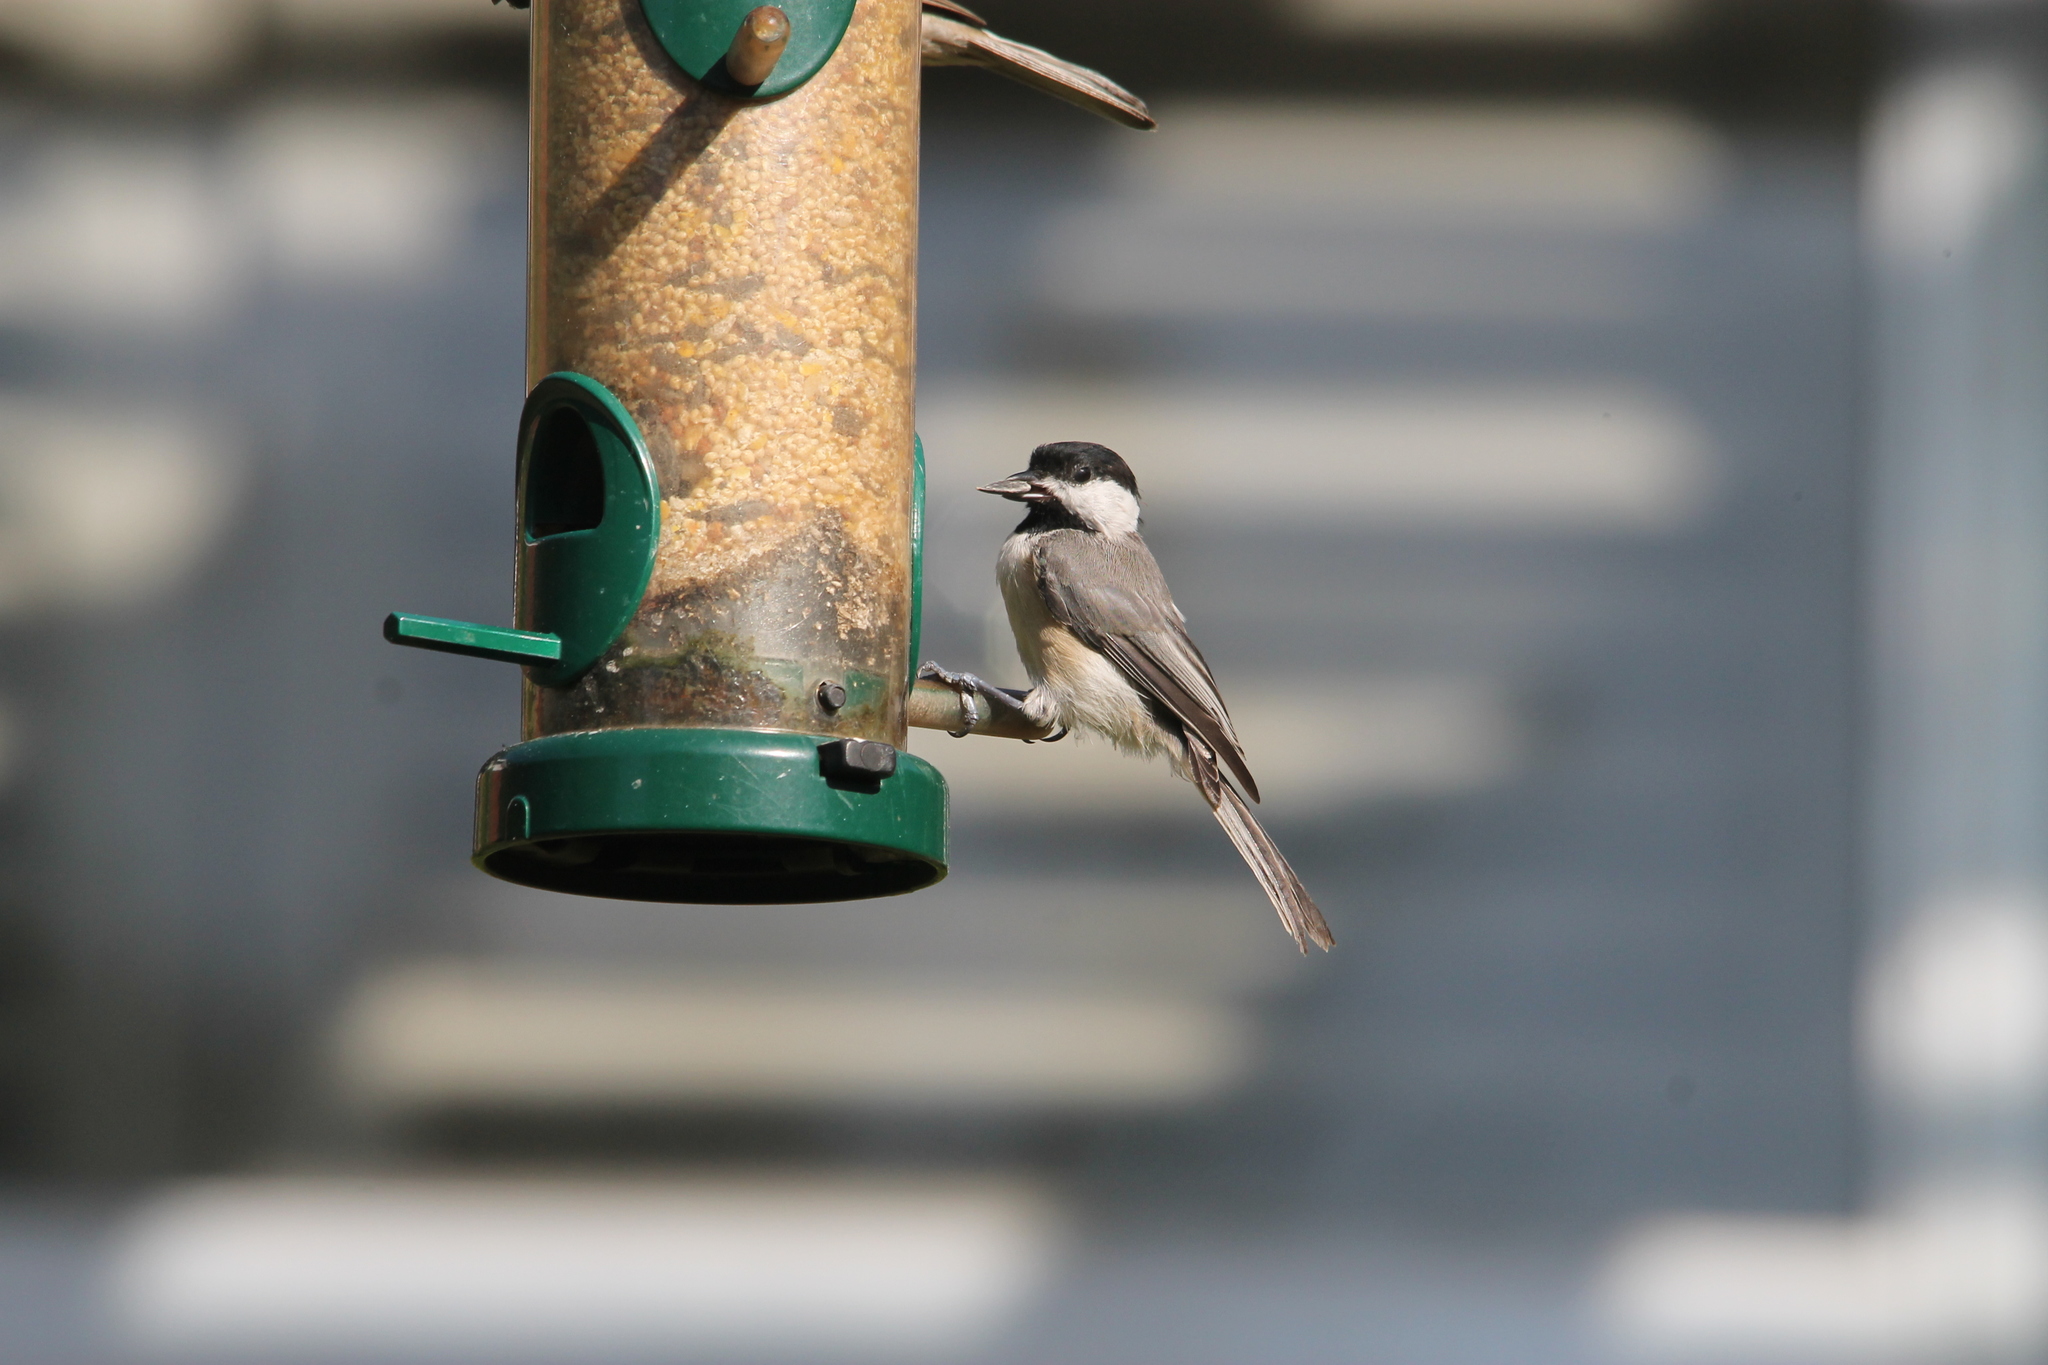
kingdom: Animalia
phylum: Chordata
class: Aves
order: Passeriformes
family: Paridae
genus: Poecile
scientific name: Poecile carolinensis
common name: Carolina chickadee
